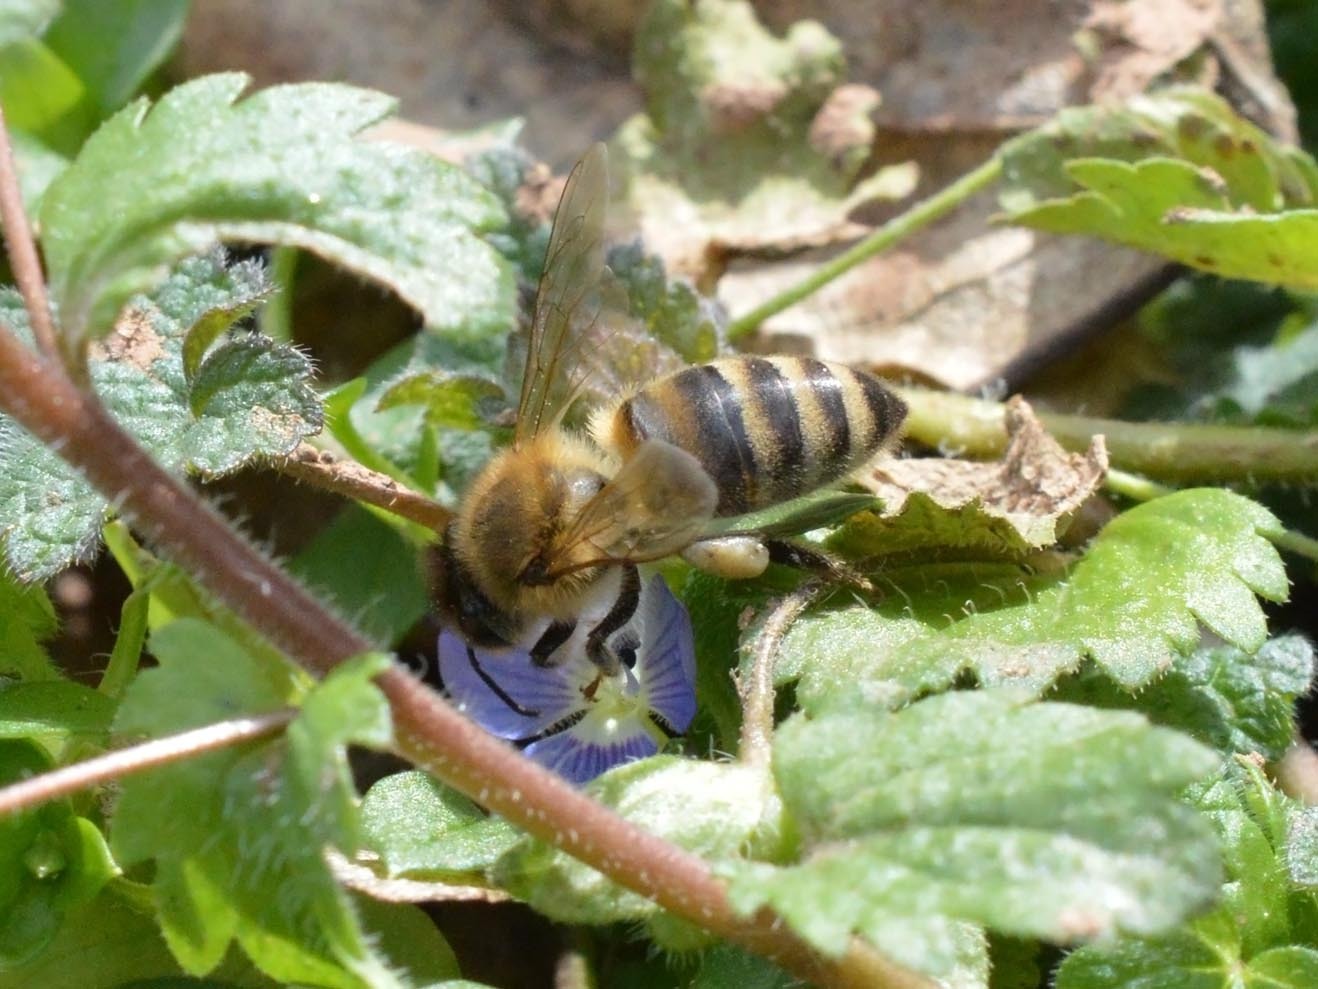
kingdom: Animalia
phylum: Arthropoda
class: Insecta
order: Hymenoptera
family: Apidae
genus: Apis
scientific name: Apis mellifera
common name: Honey bee
